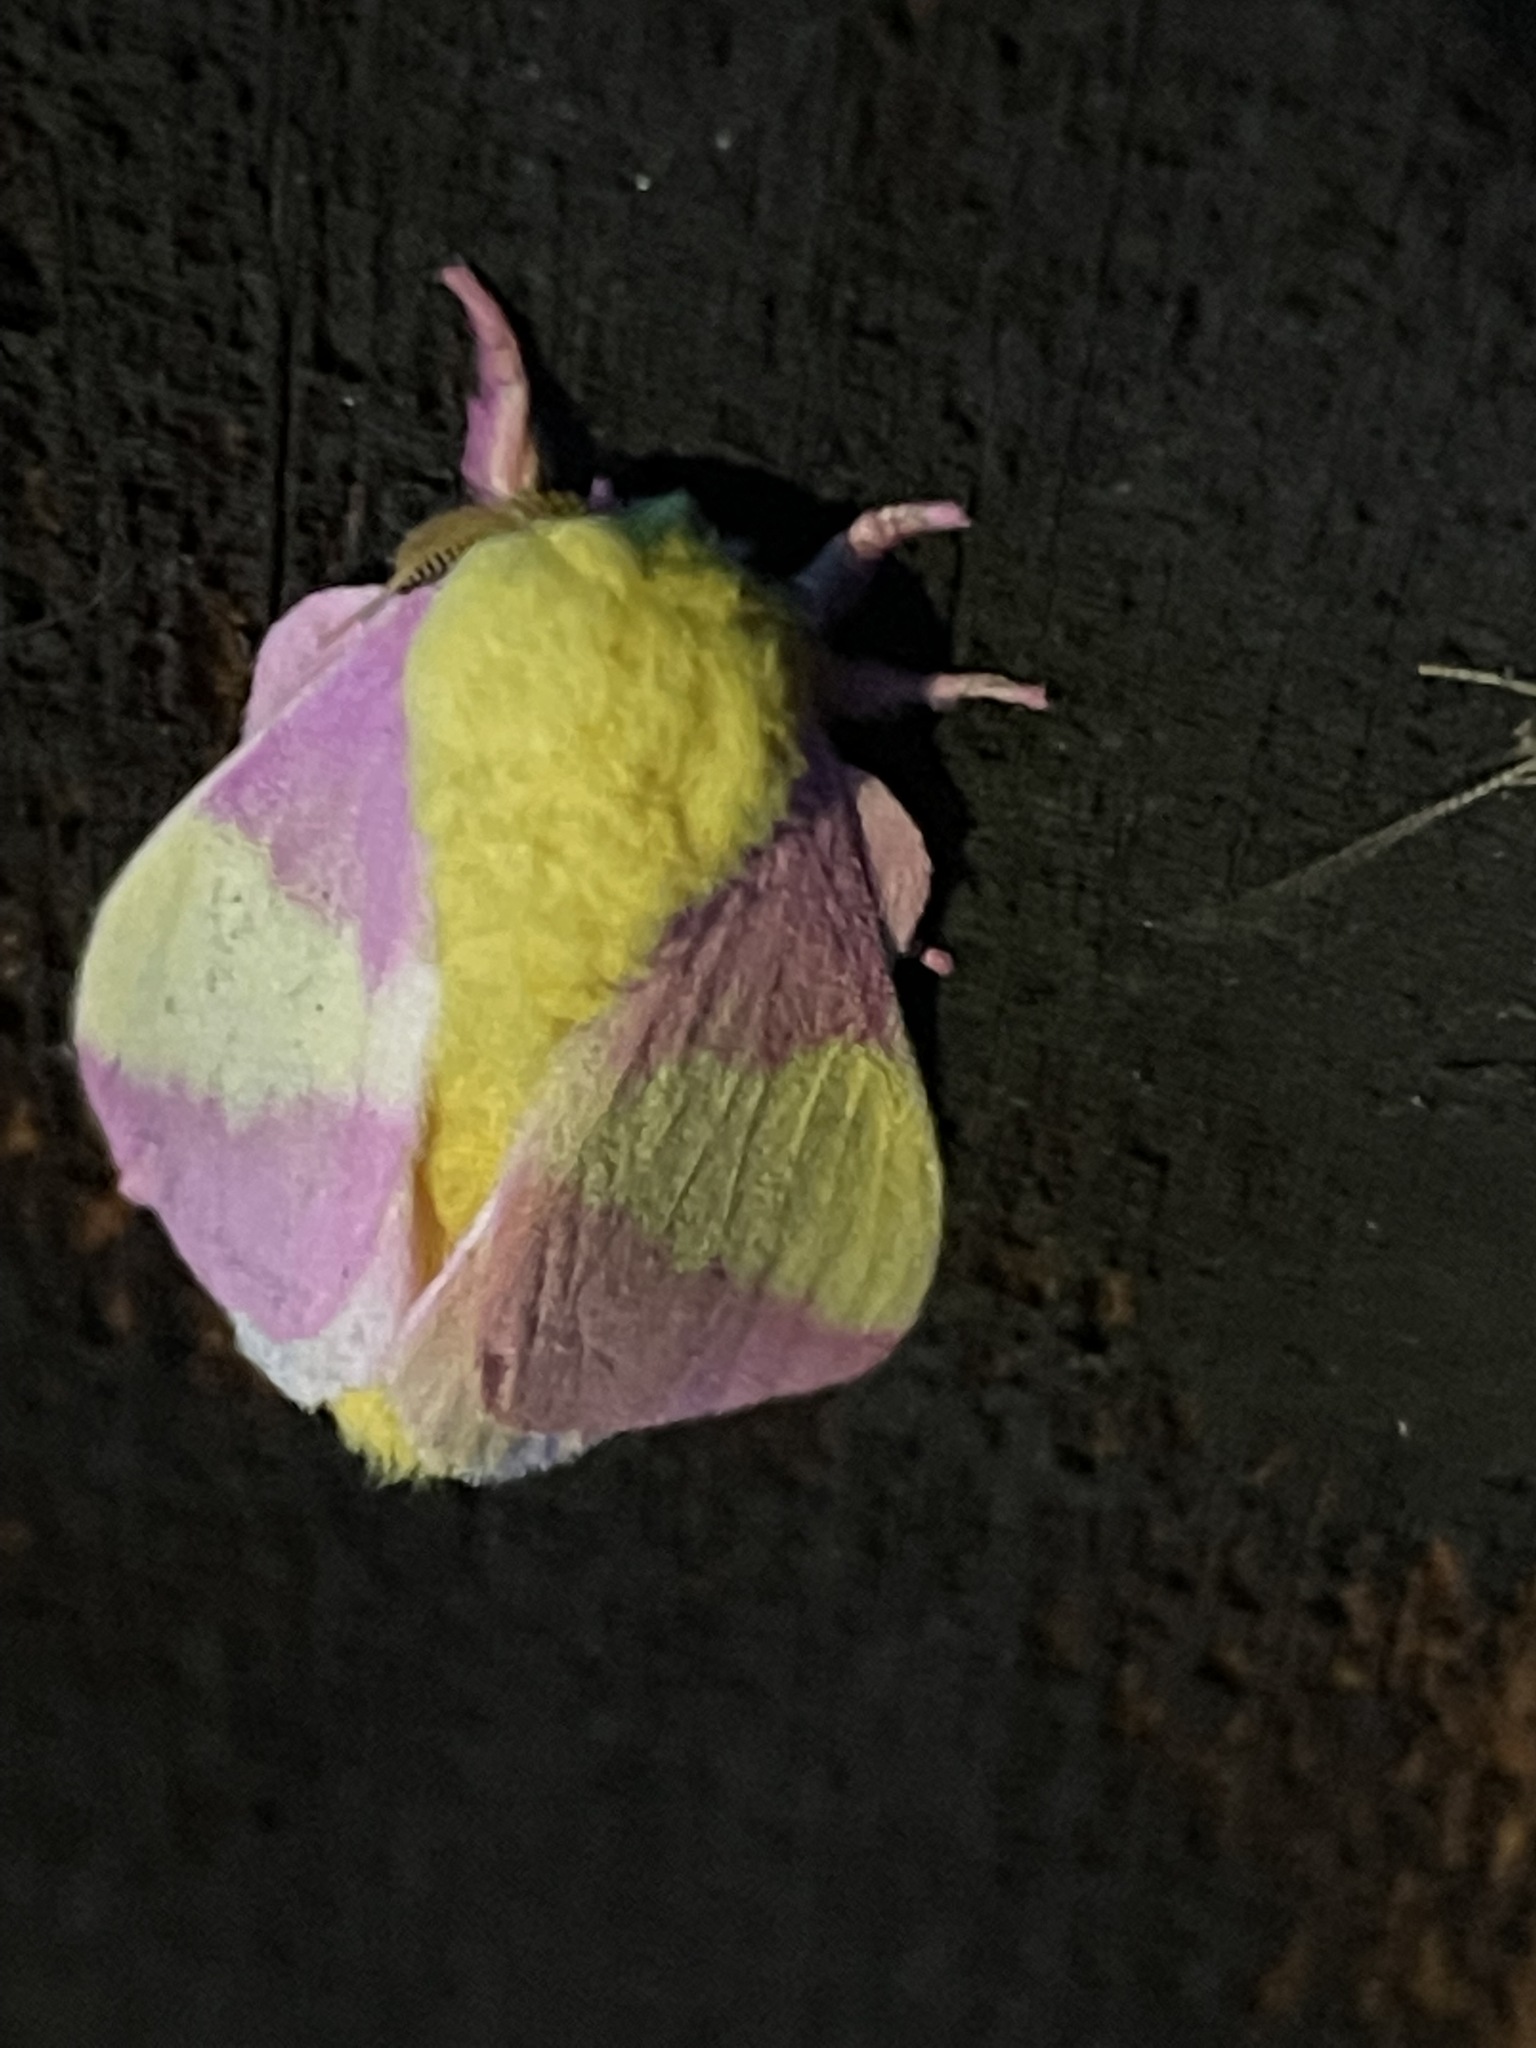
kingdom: Animalia
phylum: Arthropoda
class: Insecta
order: Lepidoptera
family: Saturniidae
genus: Dryocampa
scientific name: Dryocampa rubicunda
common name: Rosy maple moth
